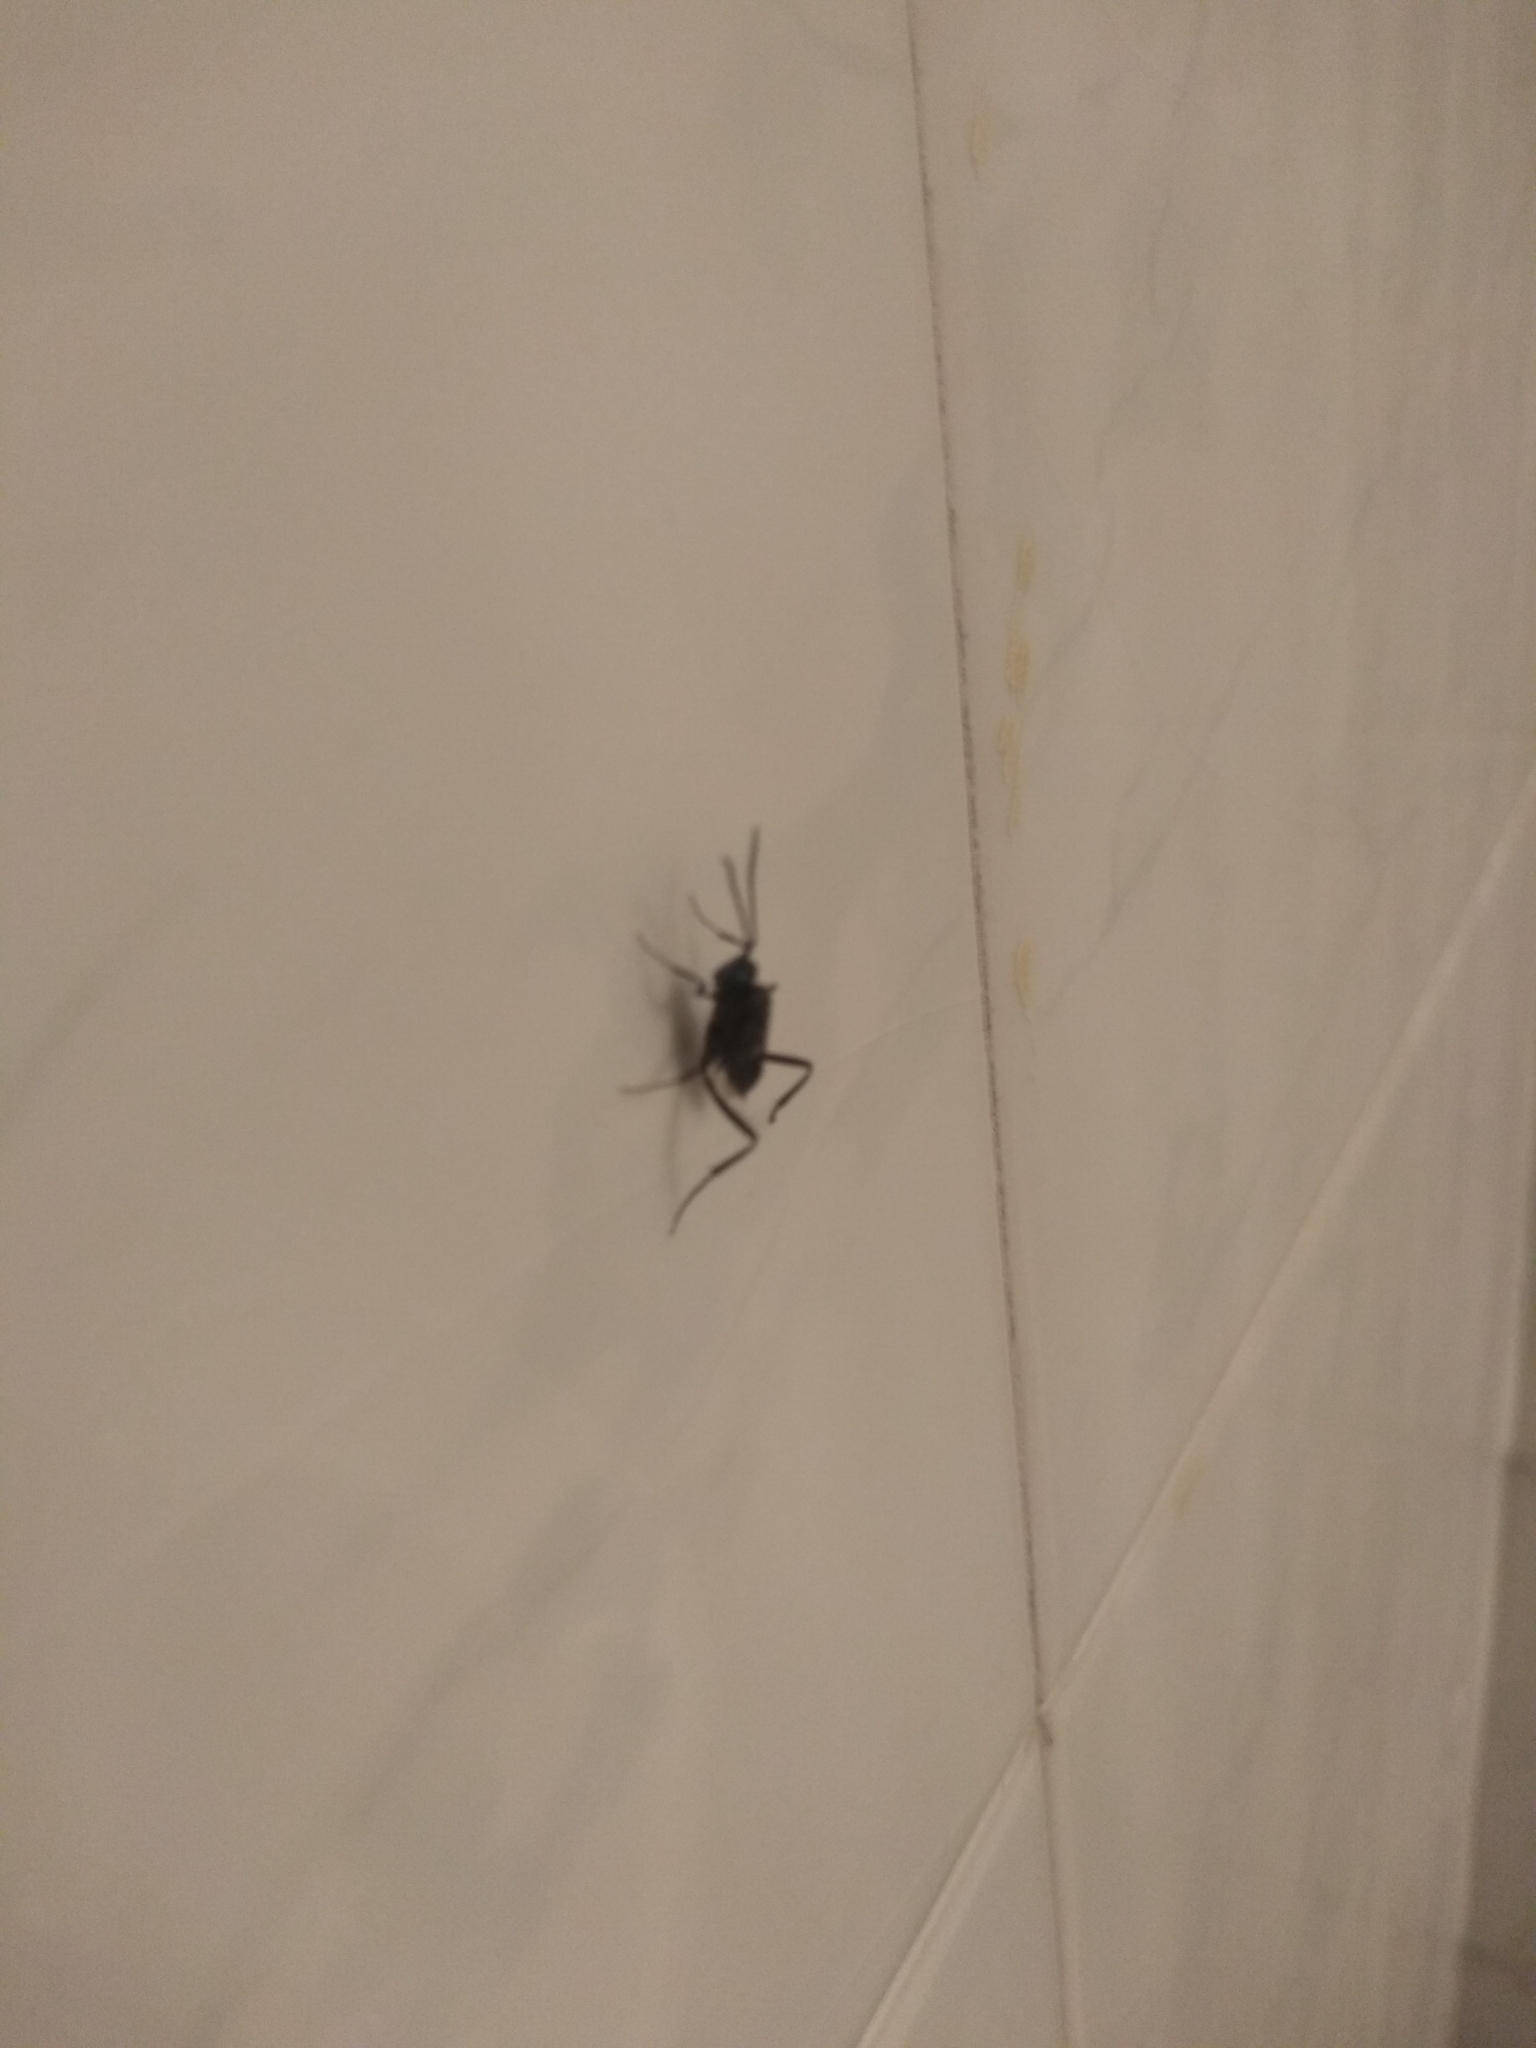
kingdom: Animalia
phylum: Arthropoda
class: Insecta
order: Hymenoptera
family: Evaniidae
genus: Evania
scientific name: Evania appendigaster
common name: Ensign wasp
